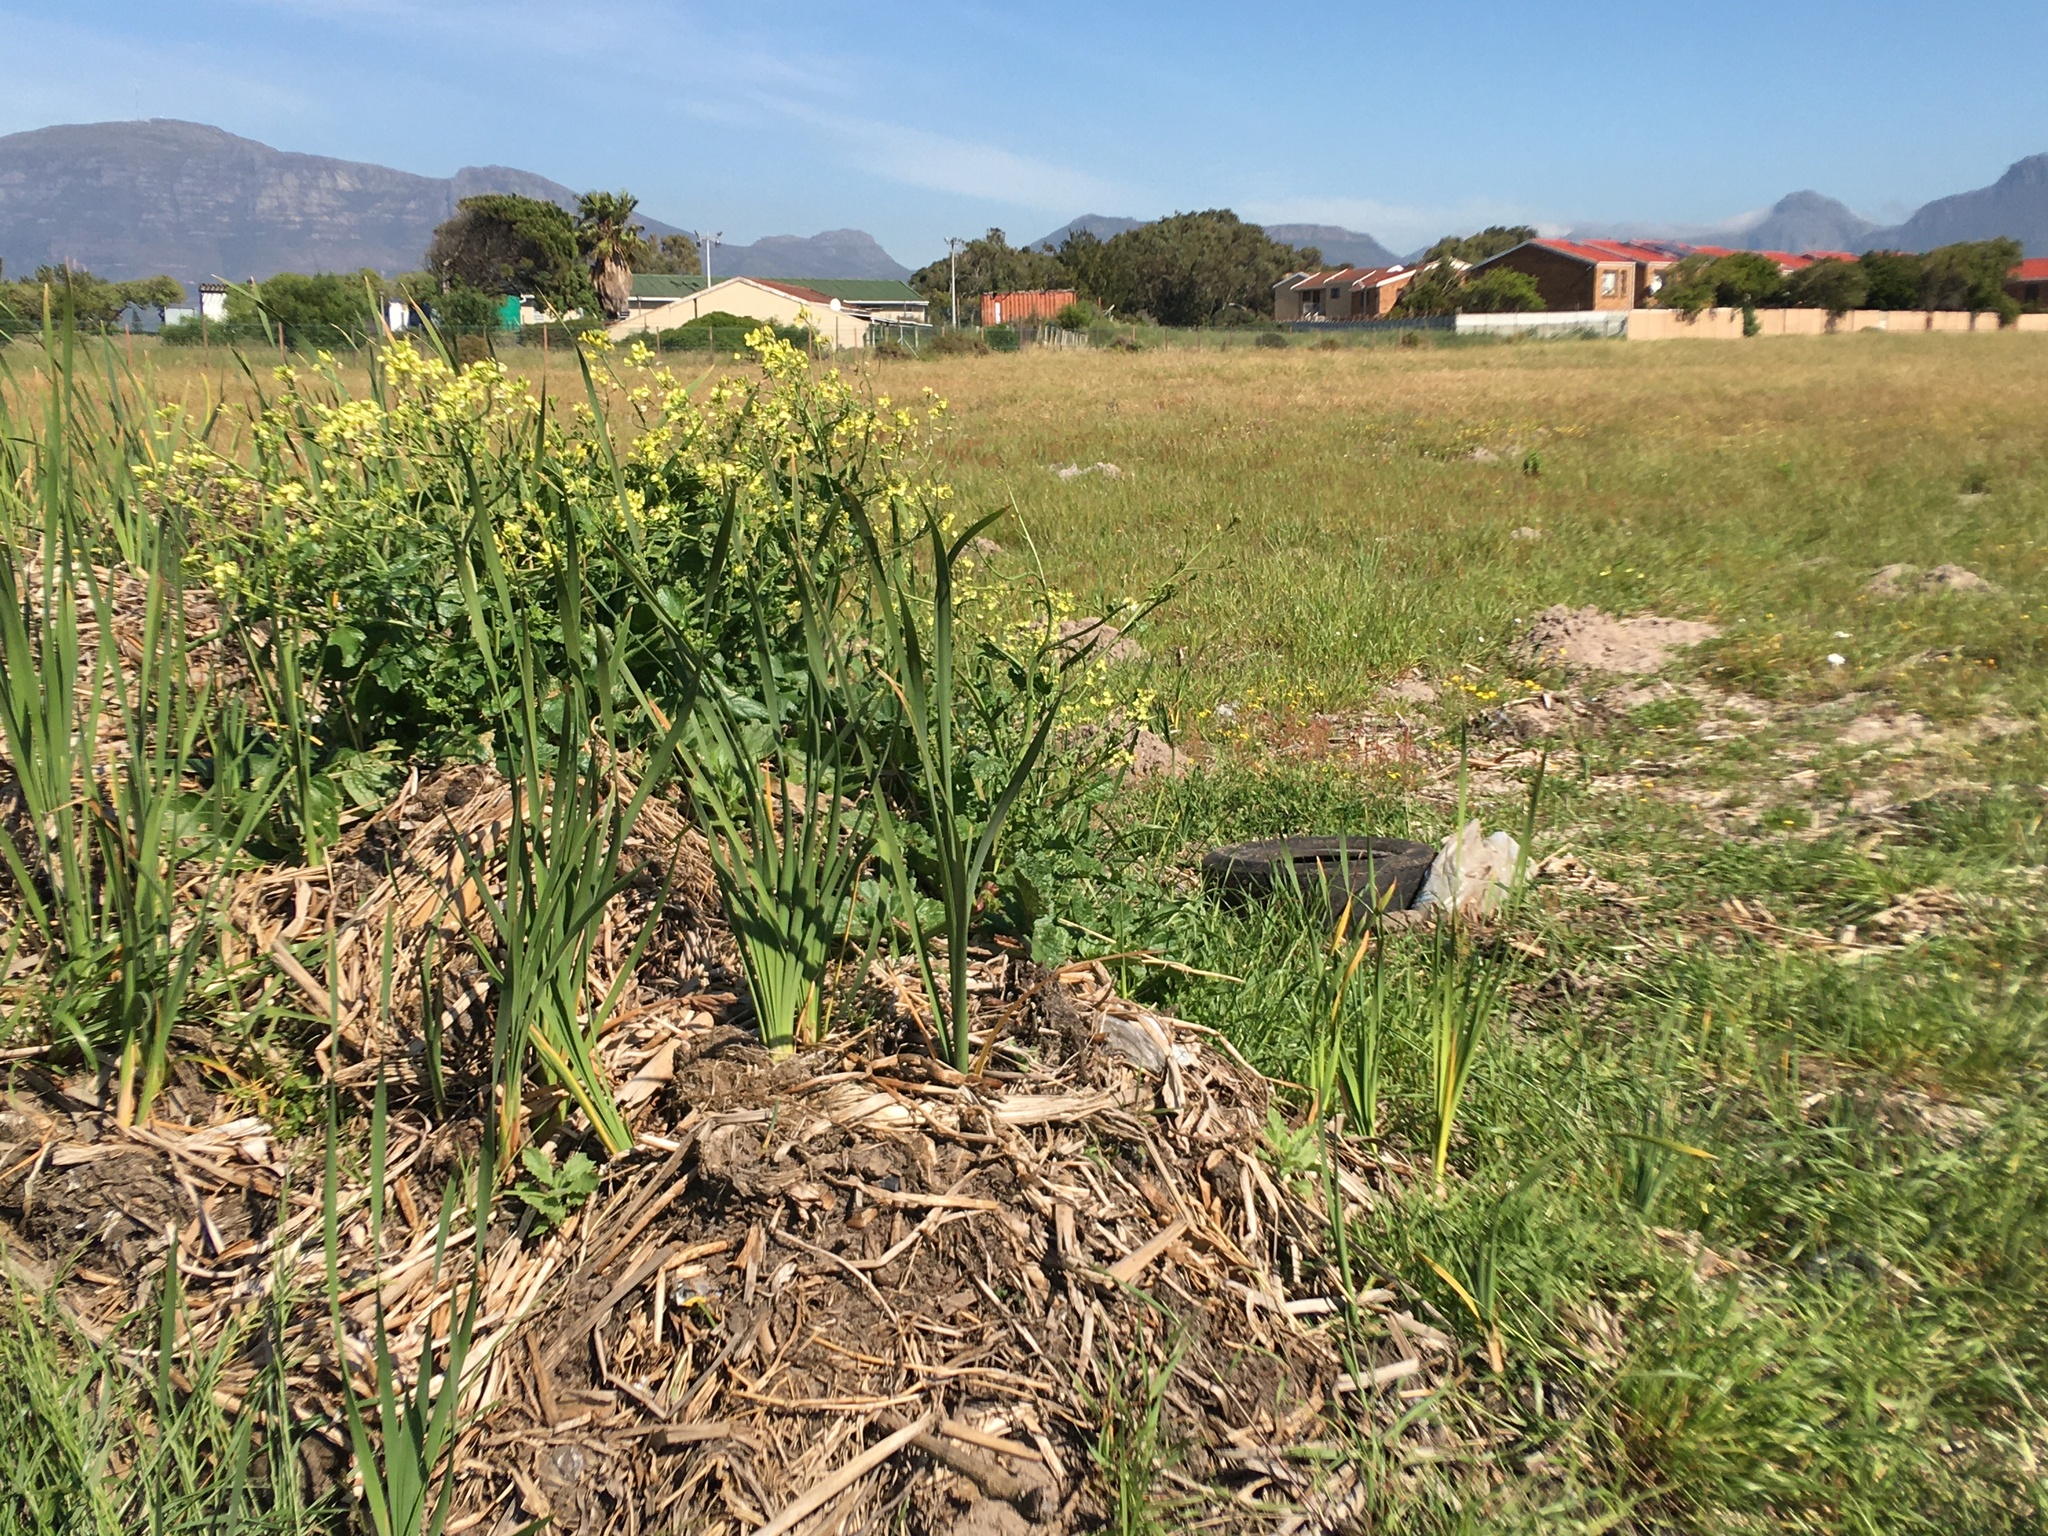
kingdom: Plantae
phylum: Tracheophyta
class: Liliopsida
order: Poales
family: Typhaceae
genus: Typha
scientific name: Typha capensis
